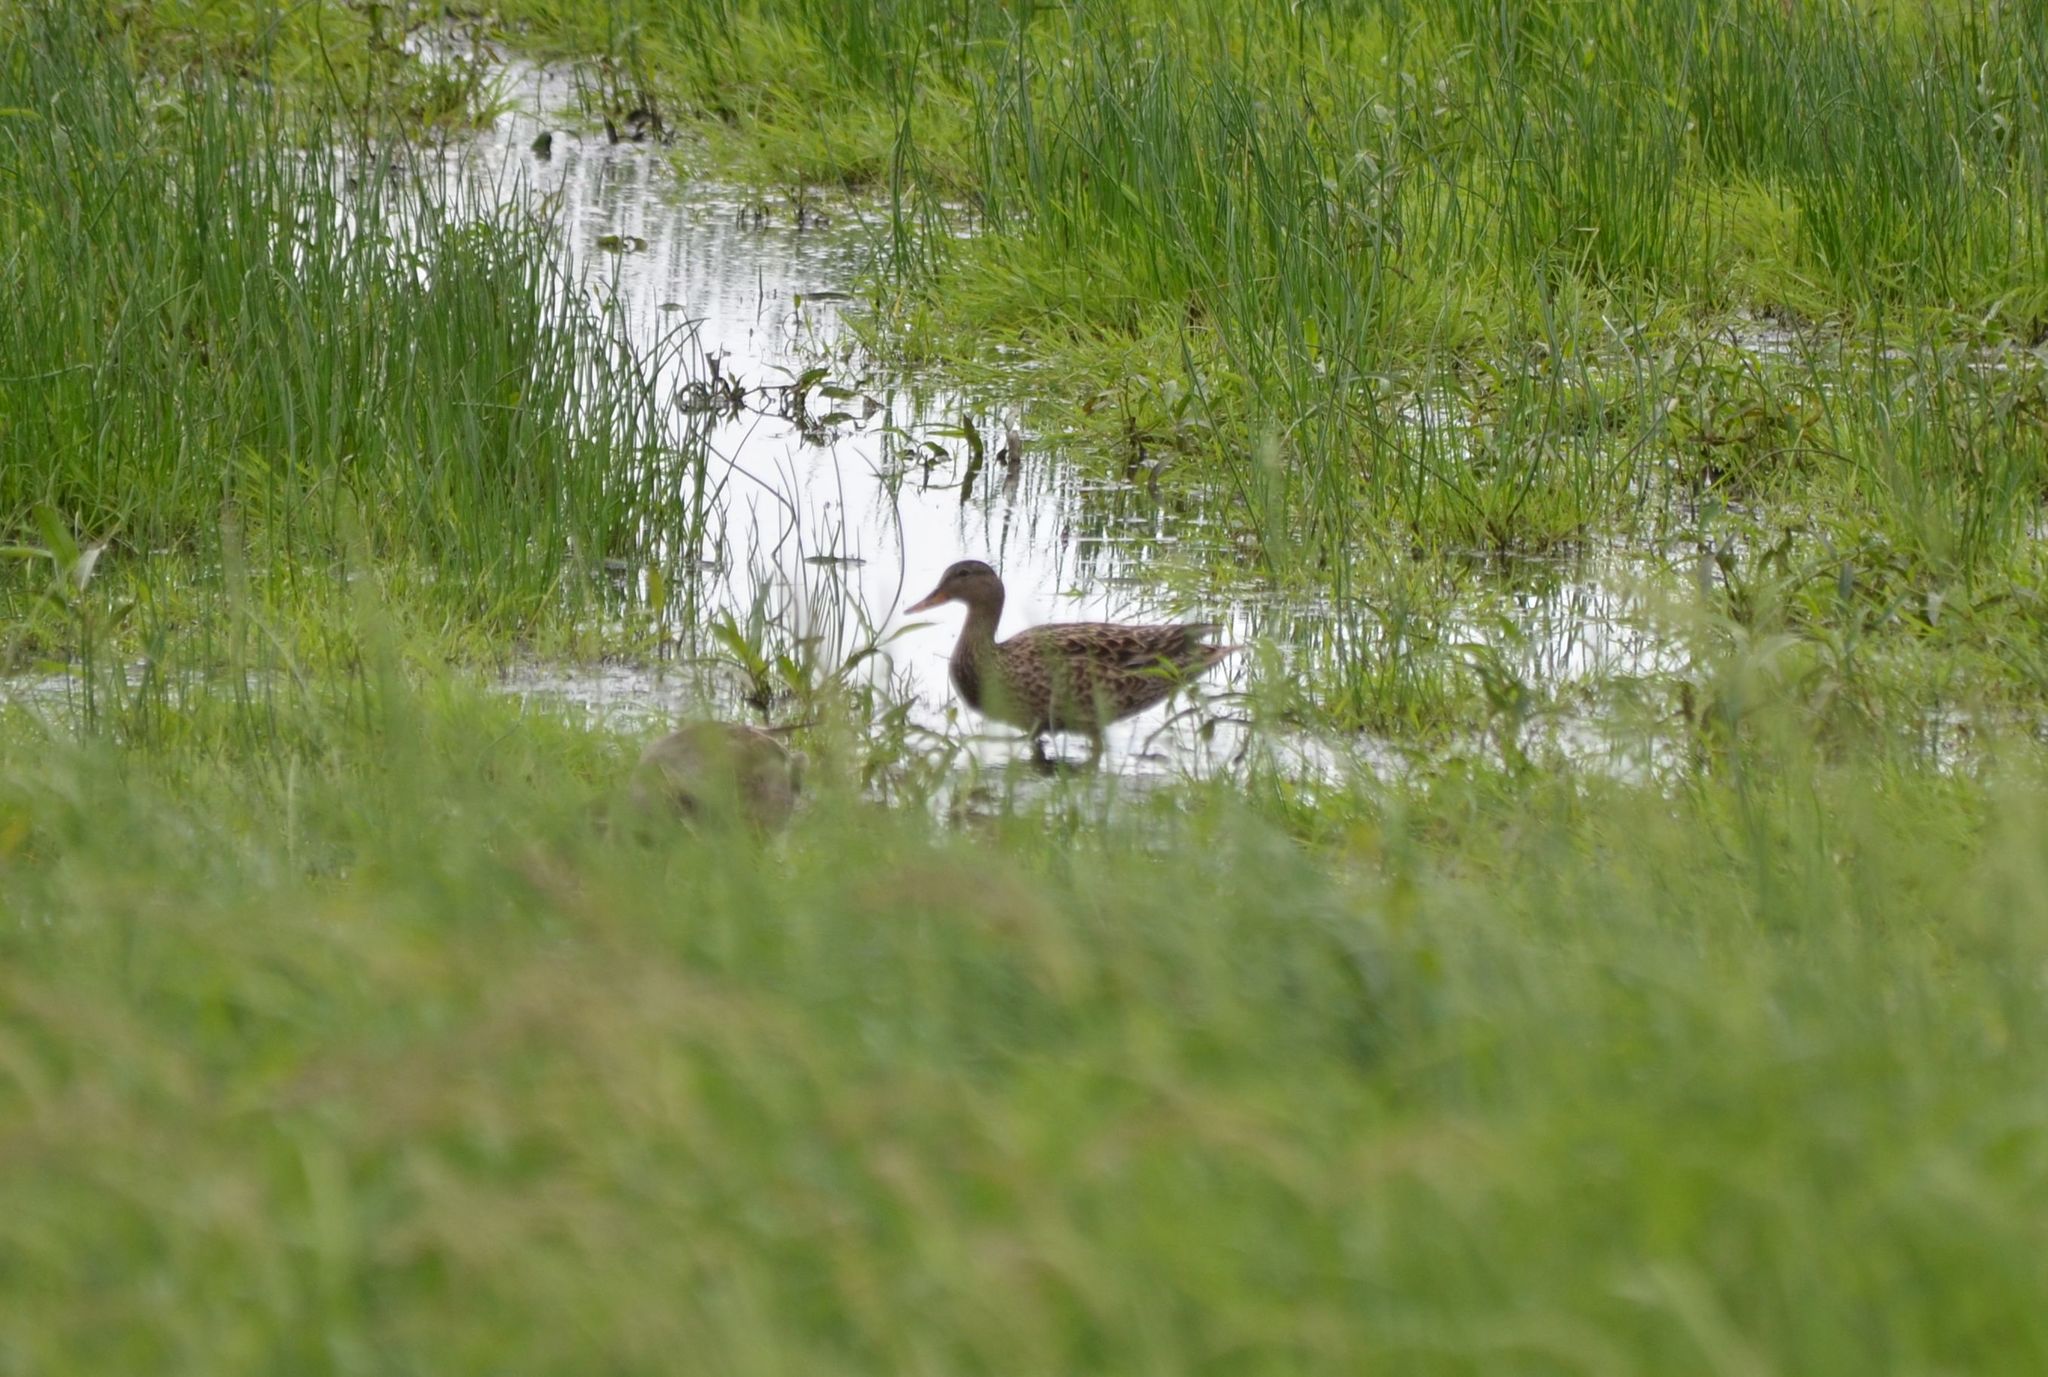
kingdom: Animalia
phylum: Chordata
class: Aves
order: Anseriformes
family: Anatidae
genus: Mareca
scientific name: Mareca strepera
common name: Gadwall
